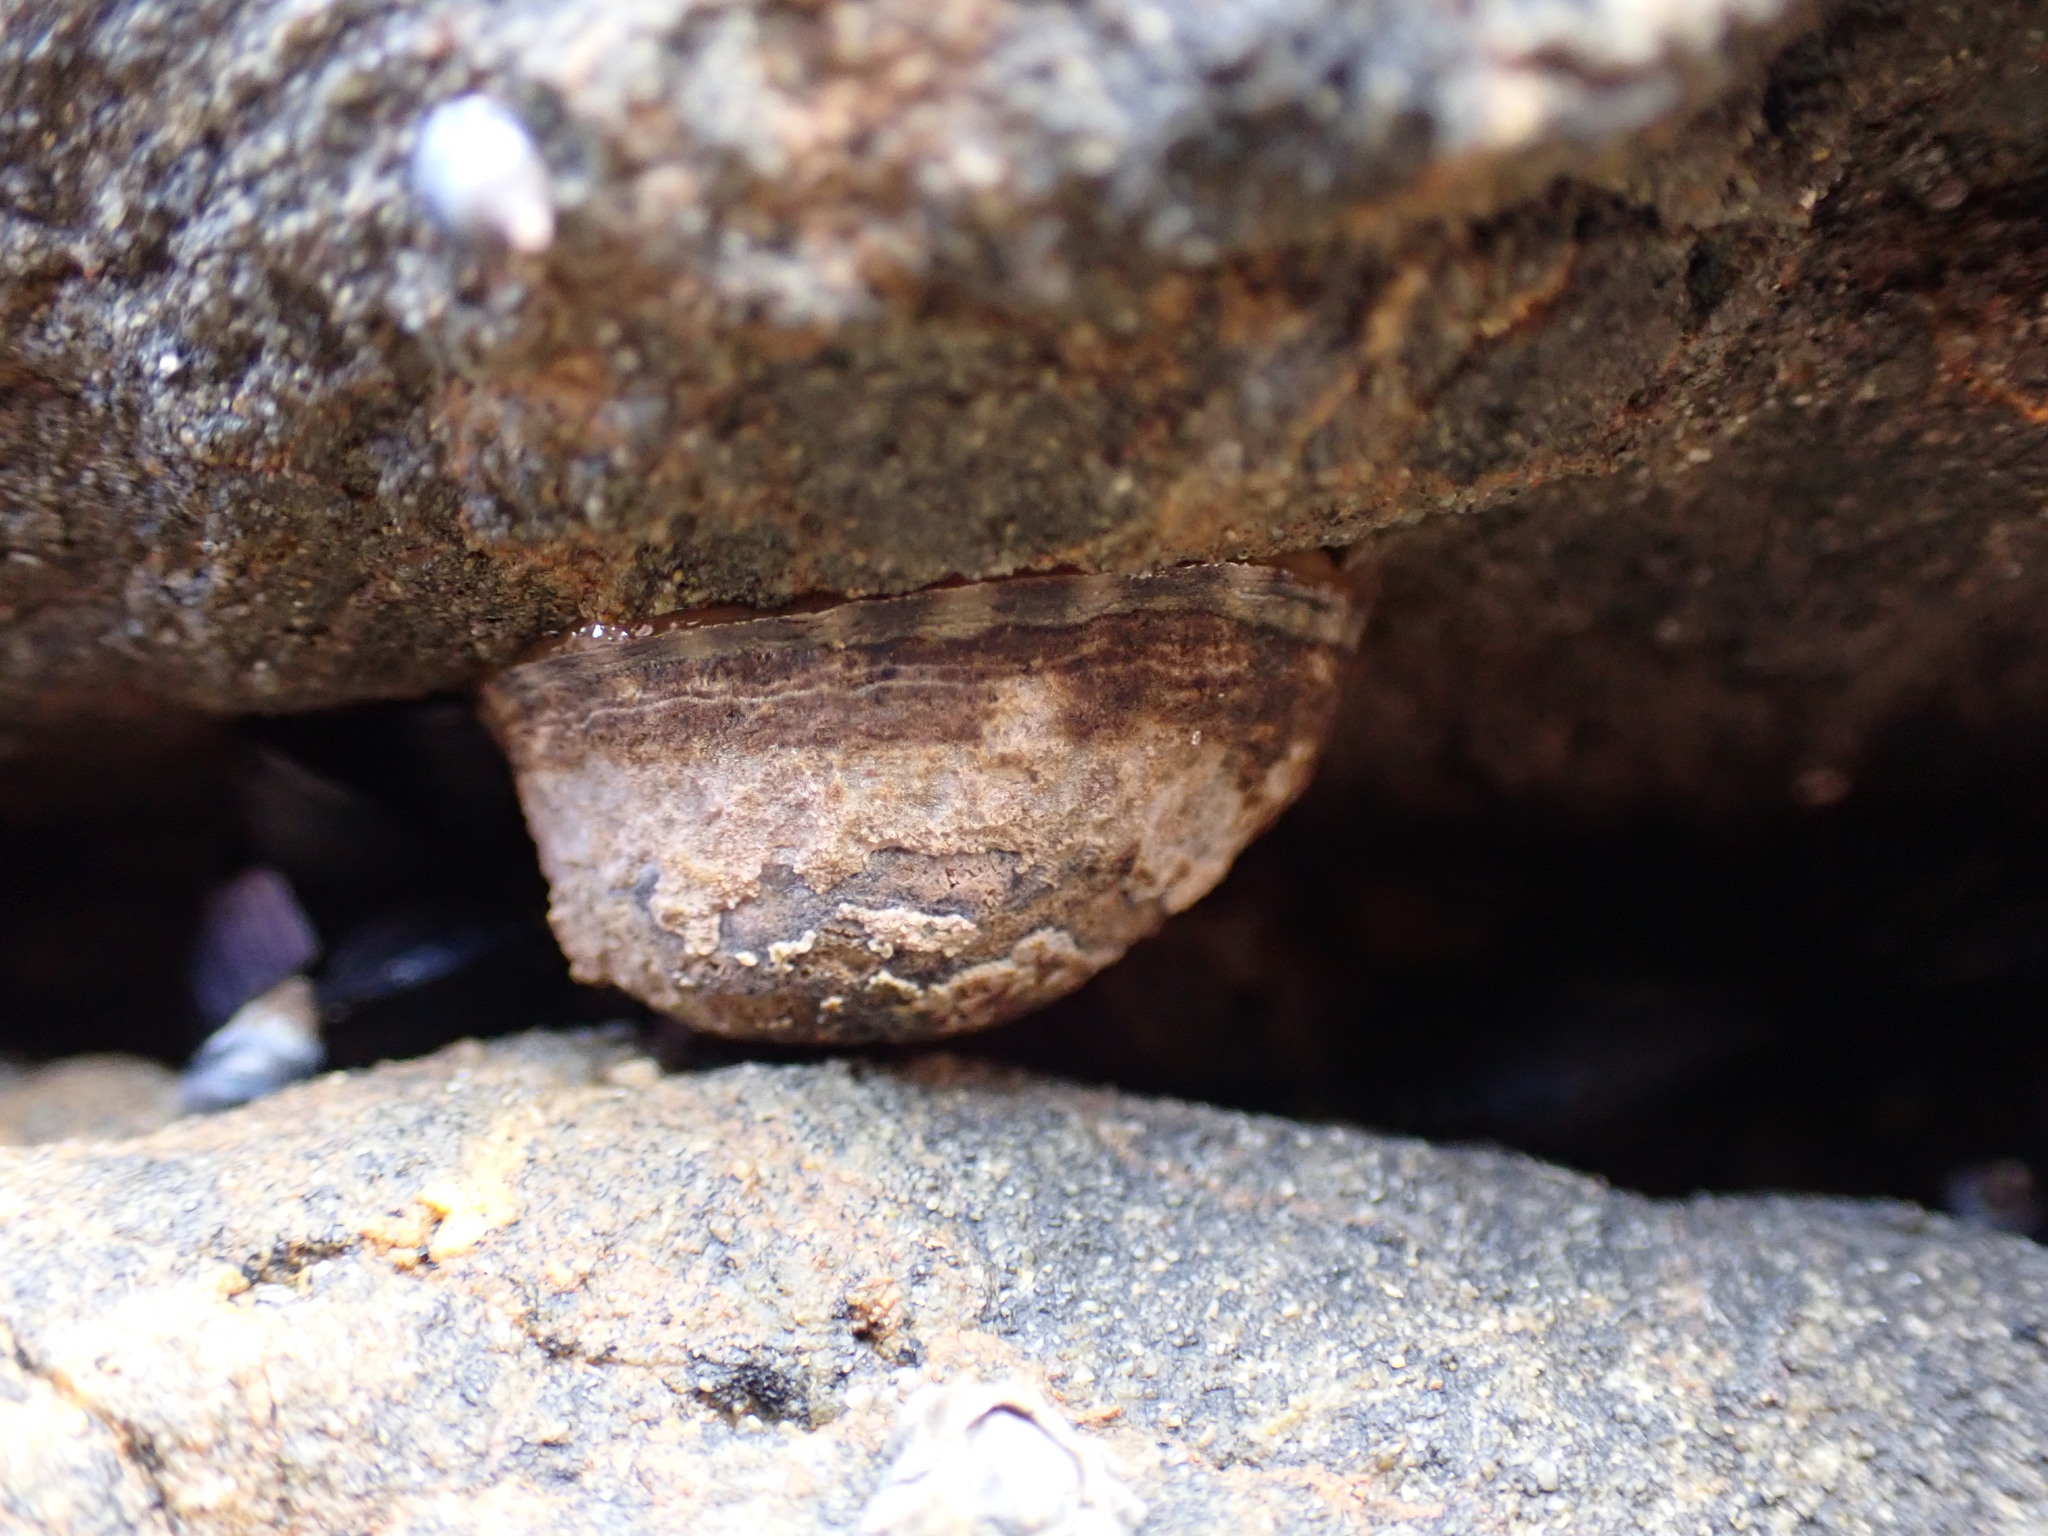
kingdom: Animalia
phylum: Mollusca
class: Gastropoda
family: Lottiidae
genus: Notoacmea
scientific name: Notoacmea pileopsis
